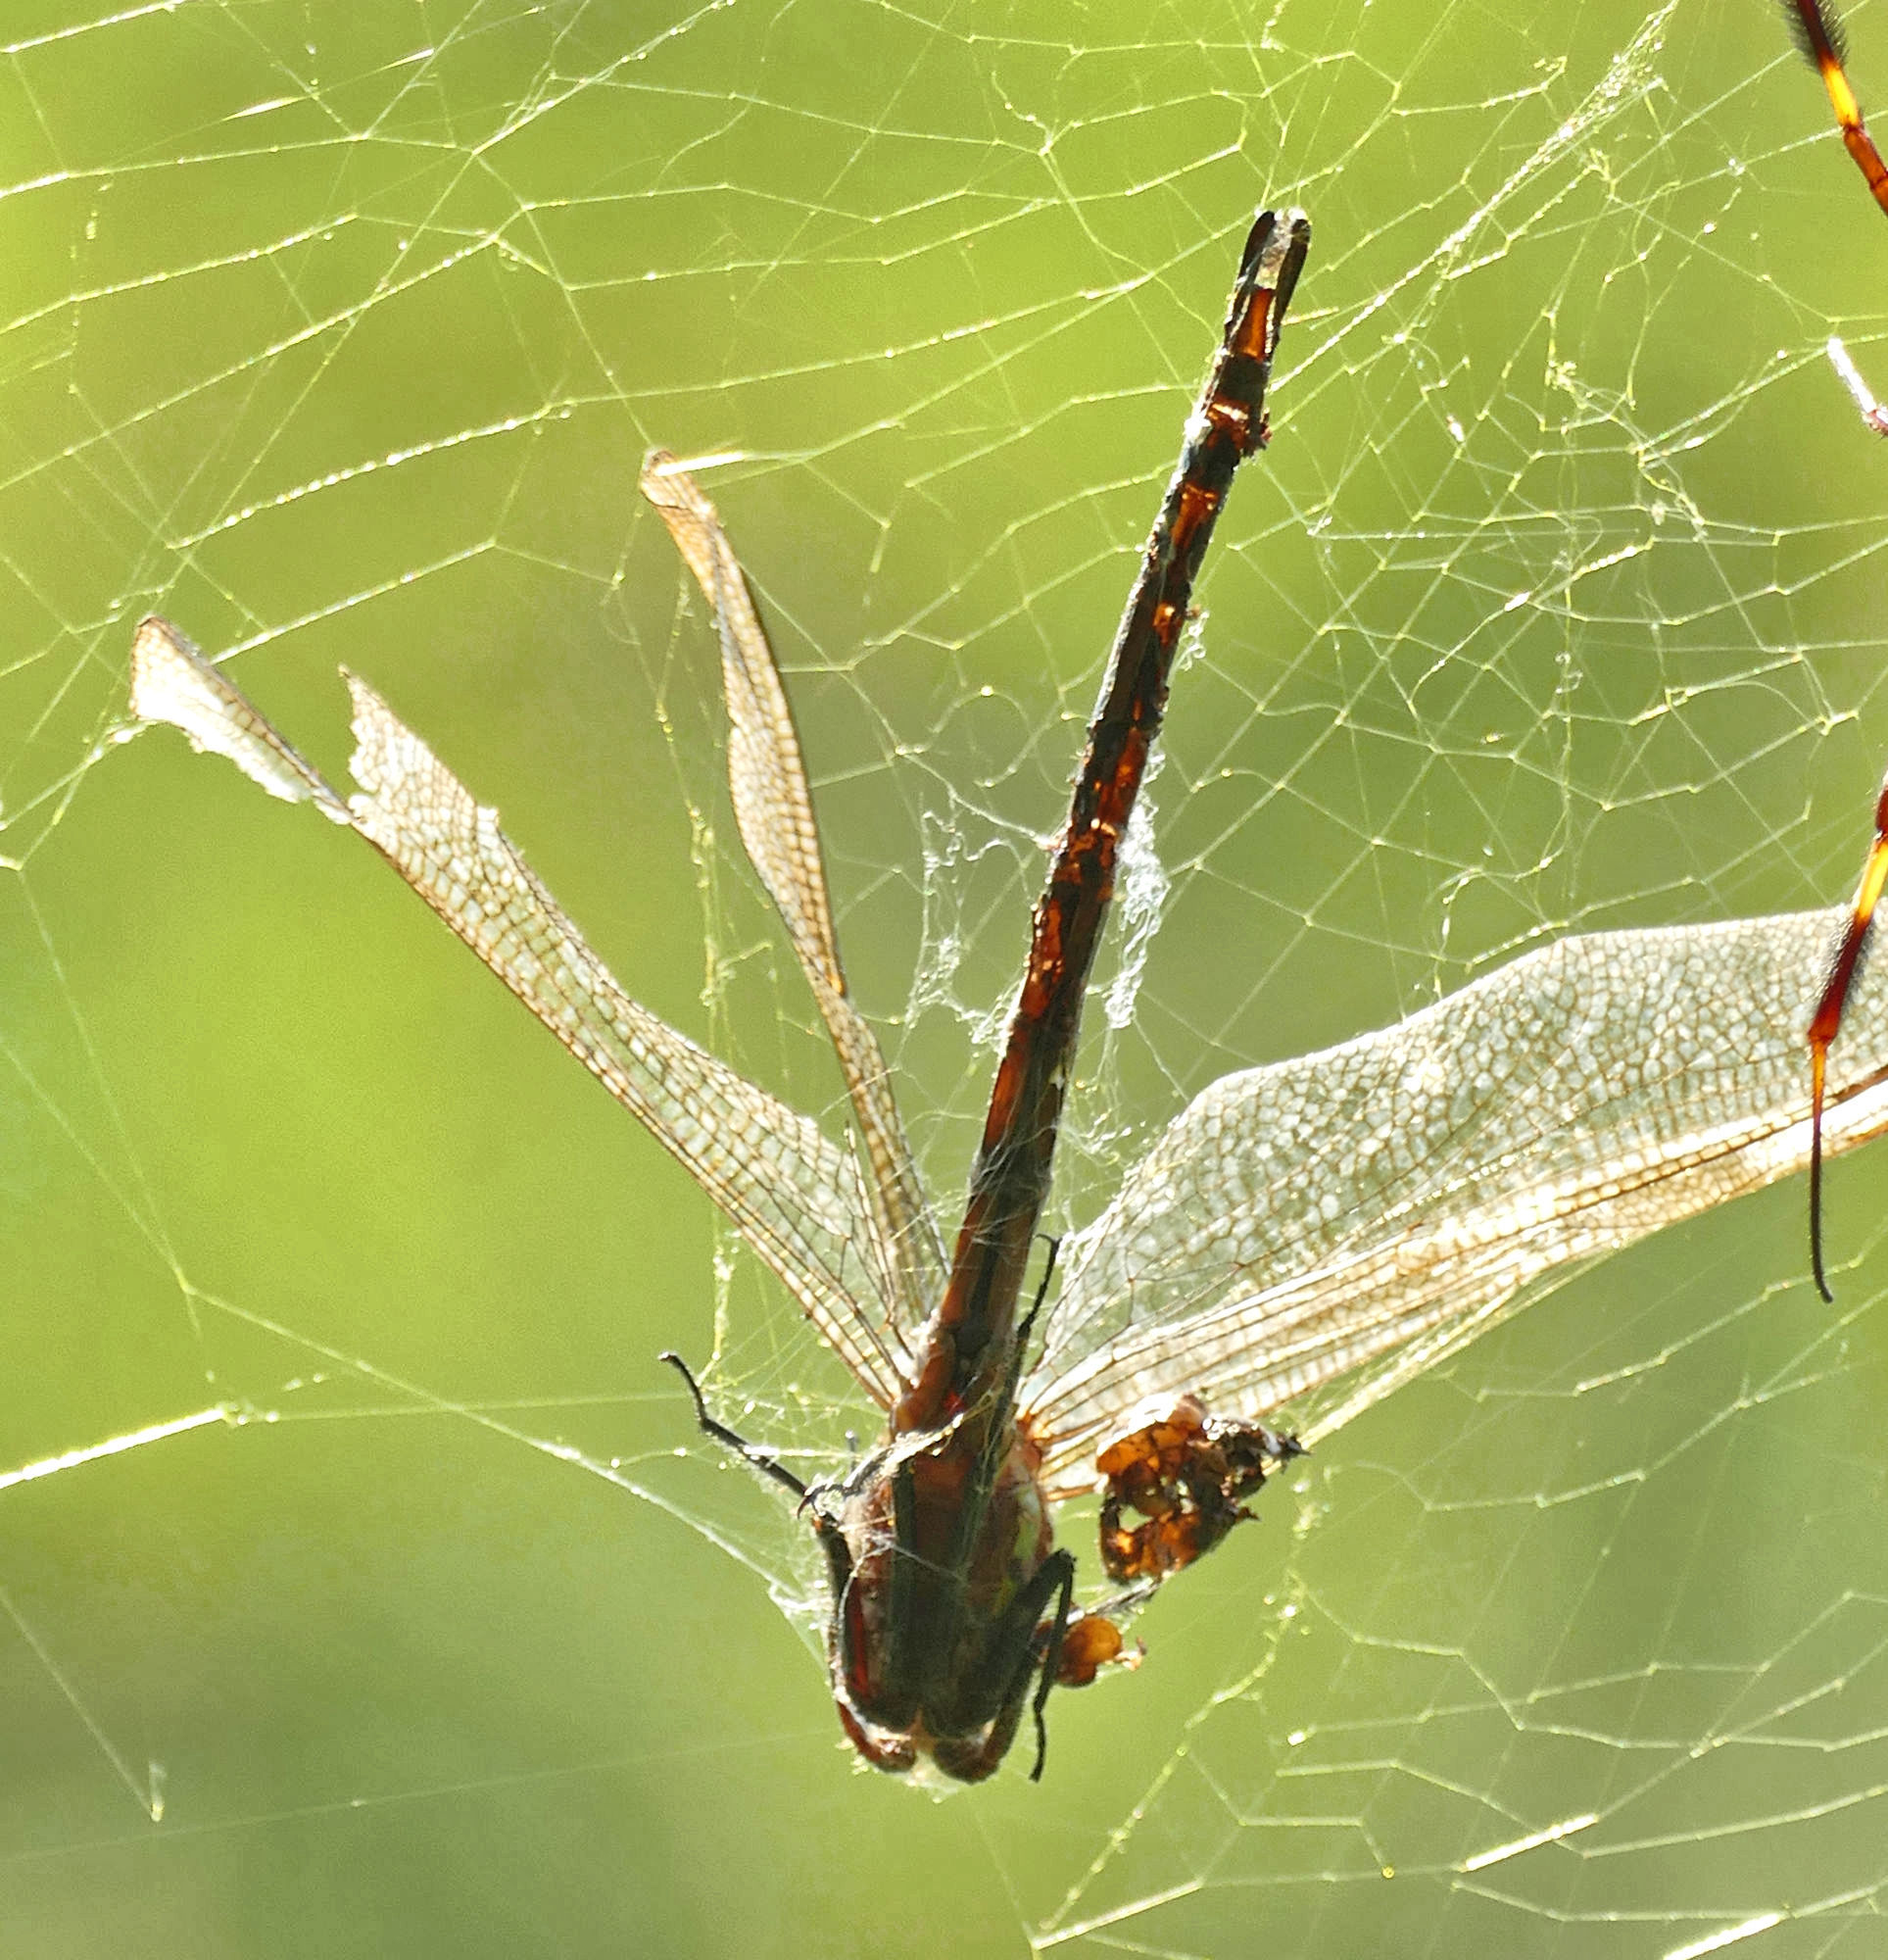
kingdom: Animalia
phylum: Arthropoda
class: Insecta
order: Odonata
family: Aeshnidae
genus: Epiaeschna
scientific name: Epiaeschna heros
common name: Swamp darner
